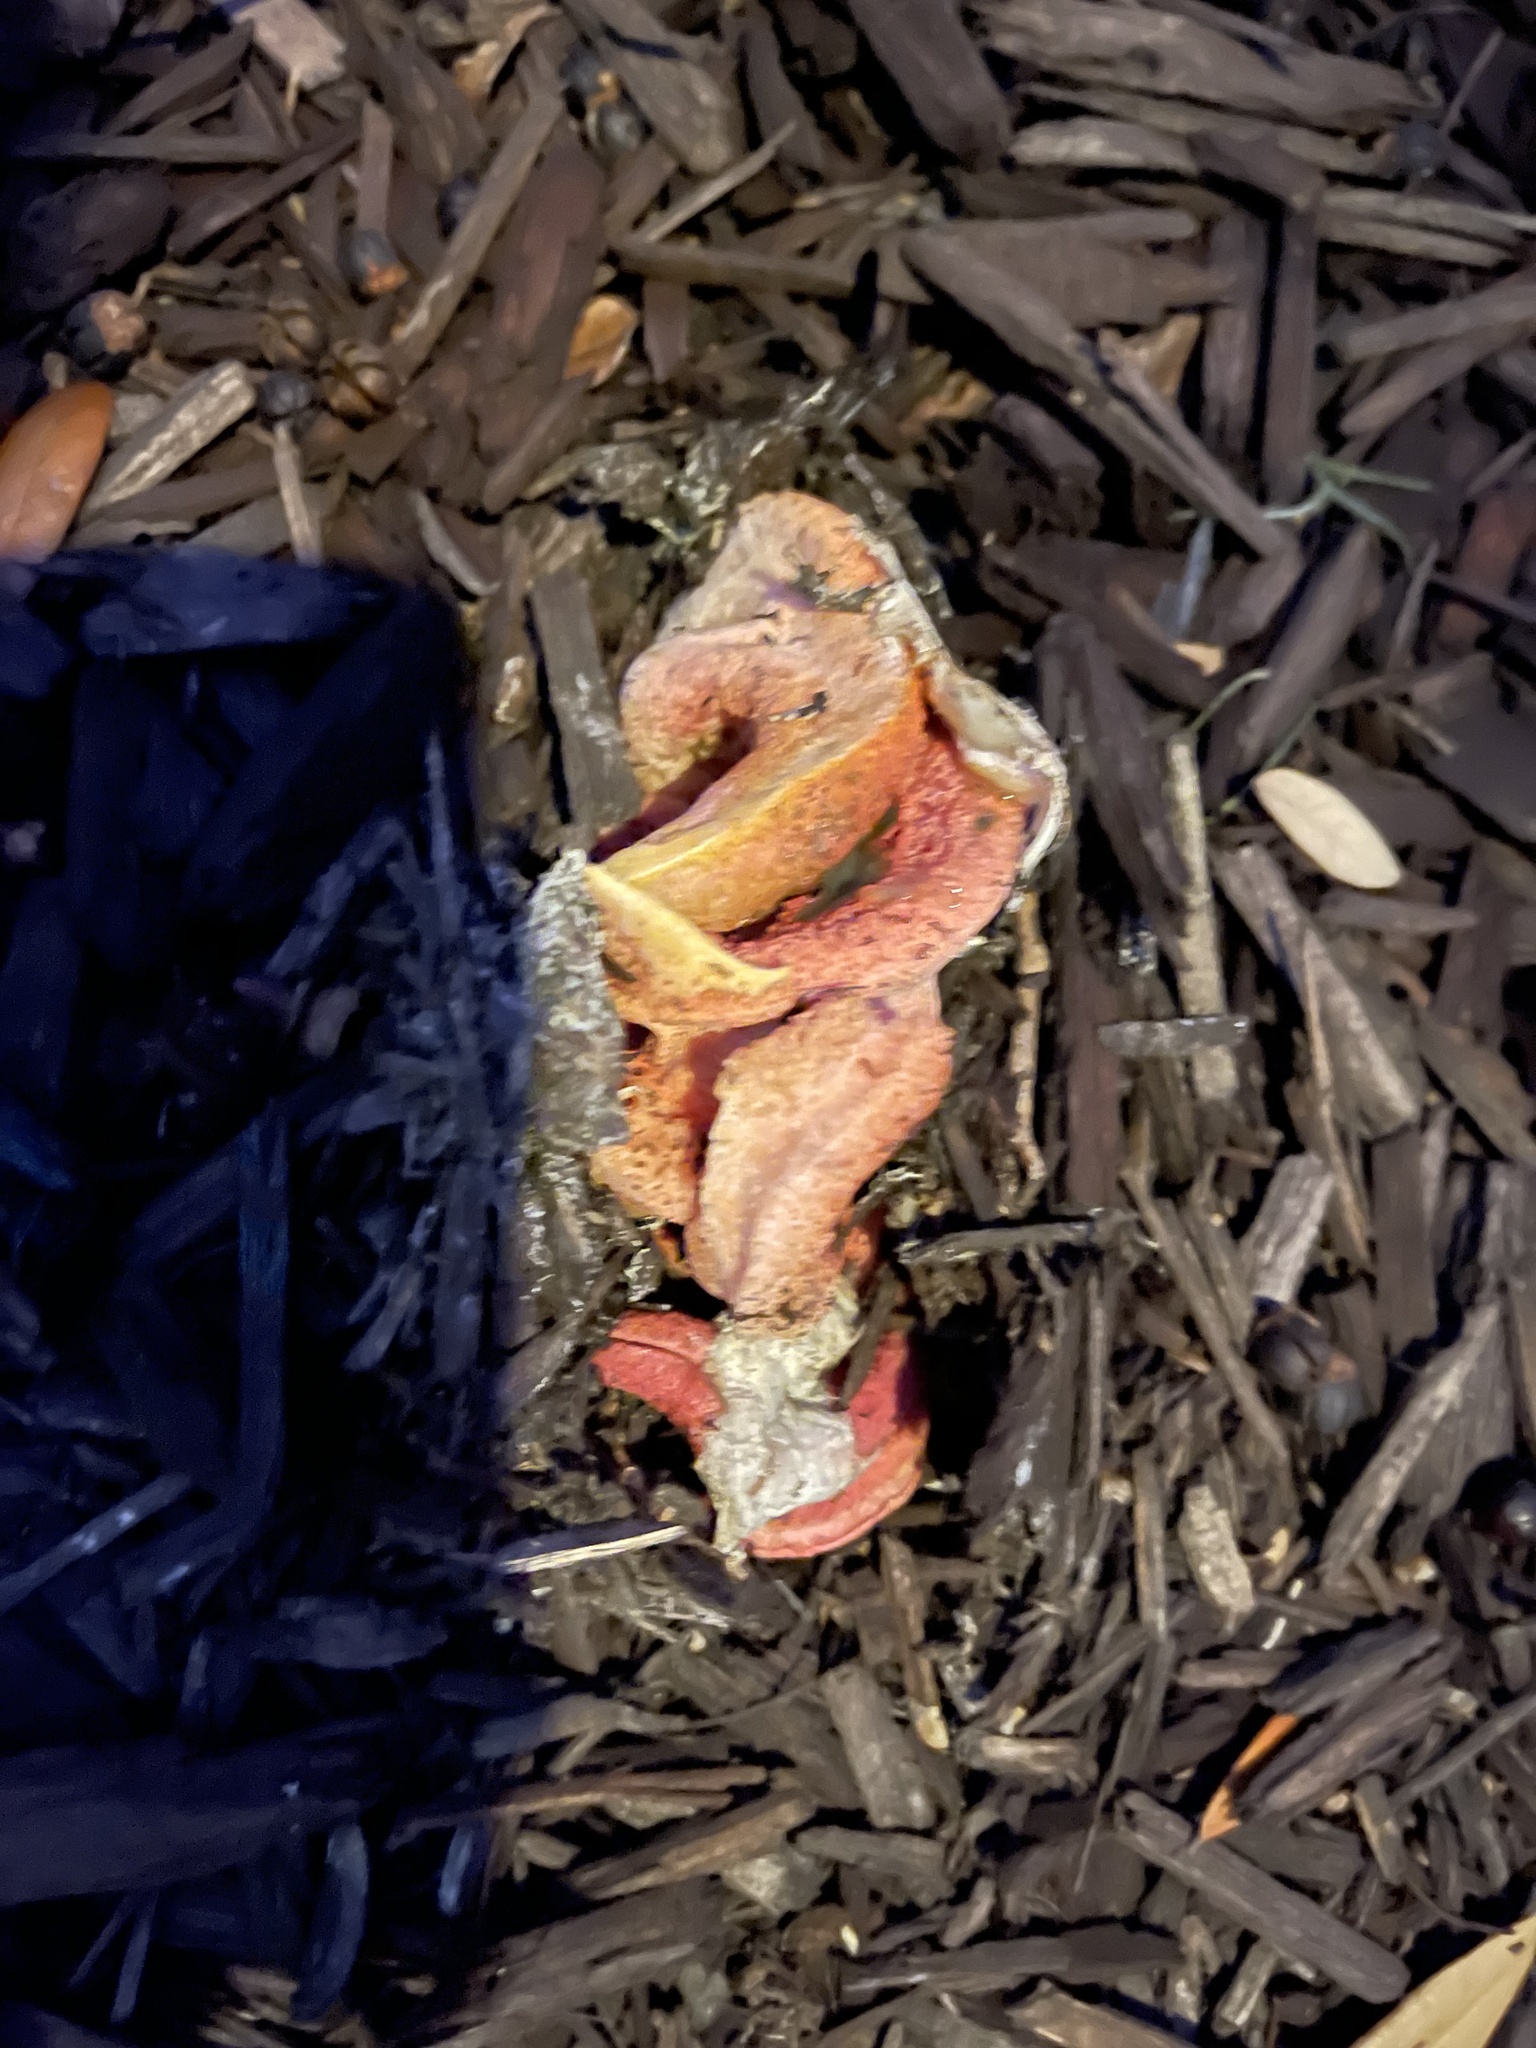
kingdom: Fungi
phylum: Basidiomycota
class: Agaricomycetes
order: Phallales
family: Phallaceae
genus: Clathrus
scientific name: Clathrus columnatus
